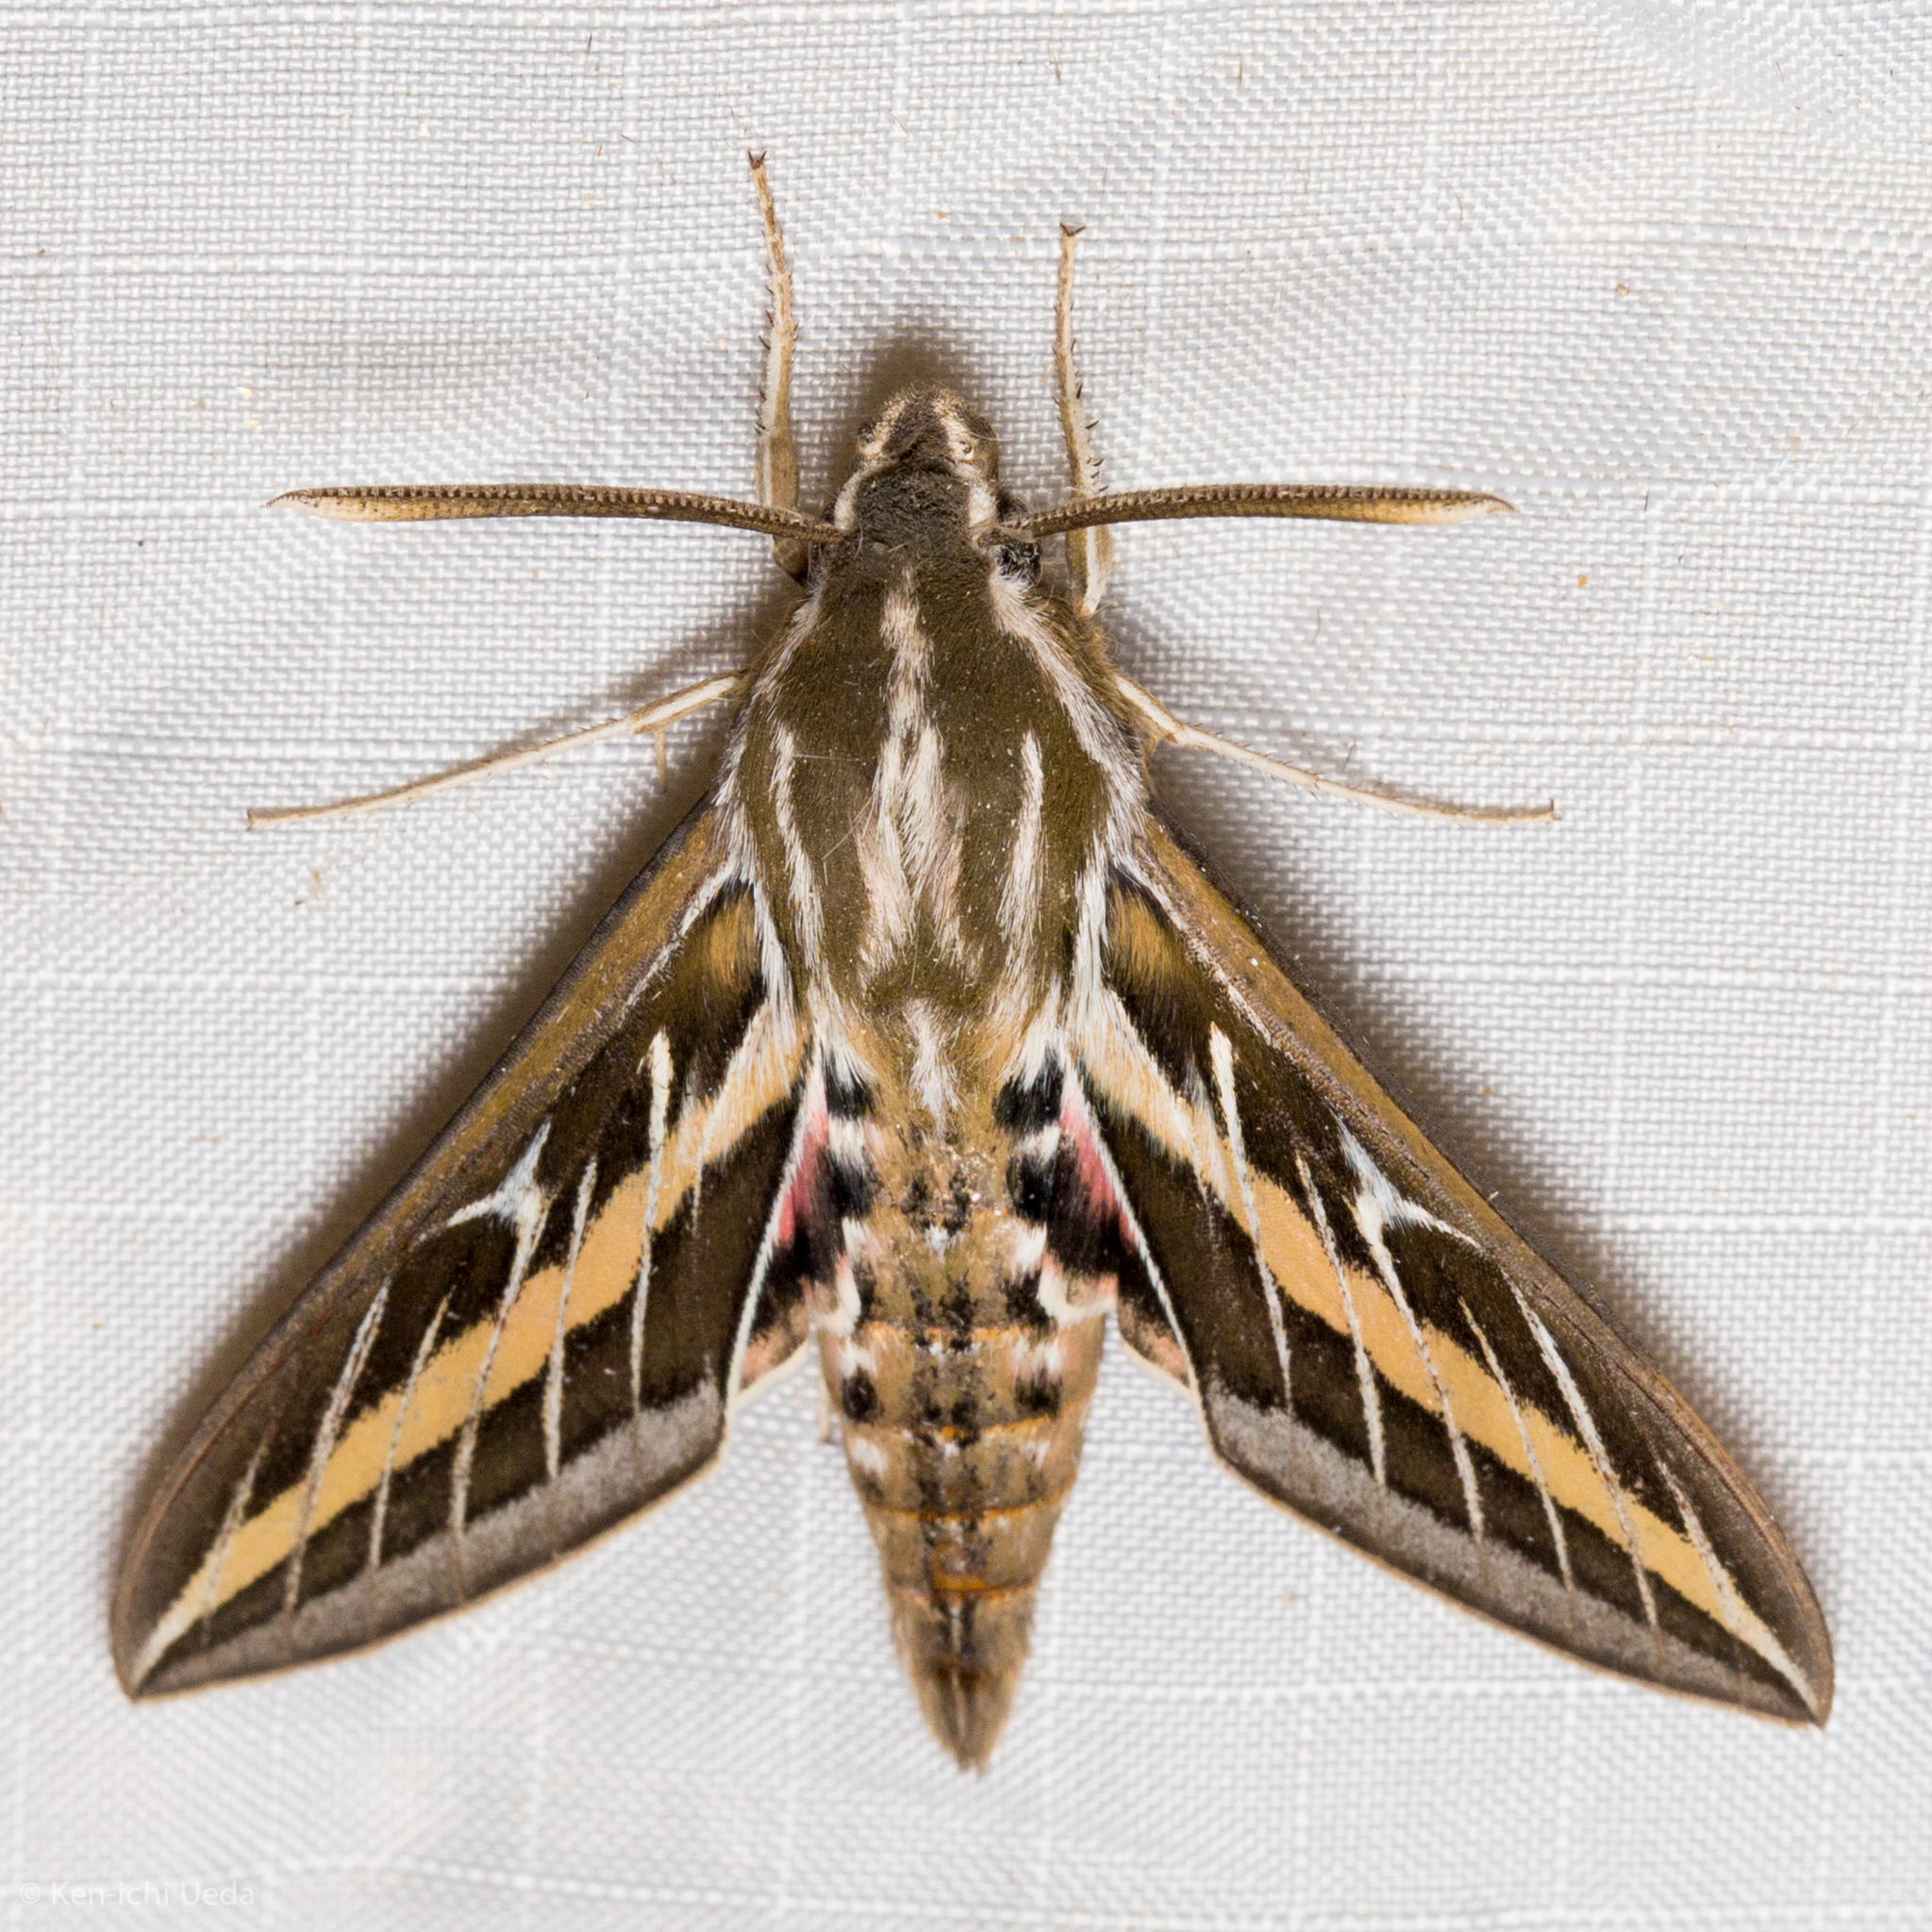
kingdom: Animalia
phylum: Arthropoda
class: Insecta
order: Lepidoptera
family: Sphingidae
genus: Hyles
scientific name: Hyles lineata
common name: White-lined sphinx
